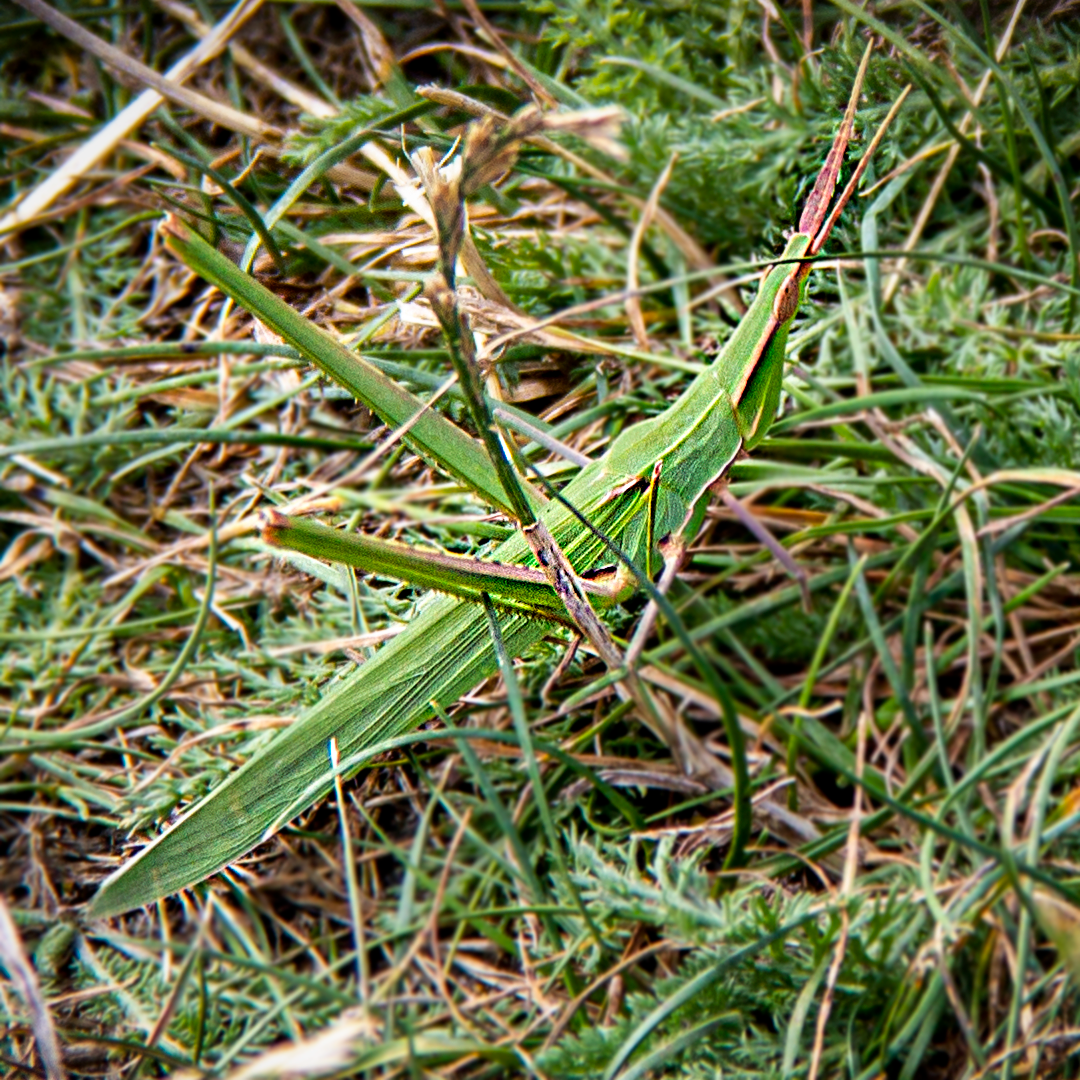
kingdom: Animalia
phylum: Arthropoda
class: Insecta
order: Orthoptera
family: Acrididae
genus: Acrida
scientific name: Acrida ungarica
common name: Common cone-headed grasshopper
